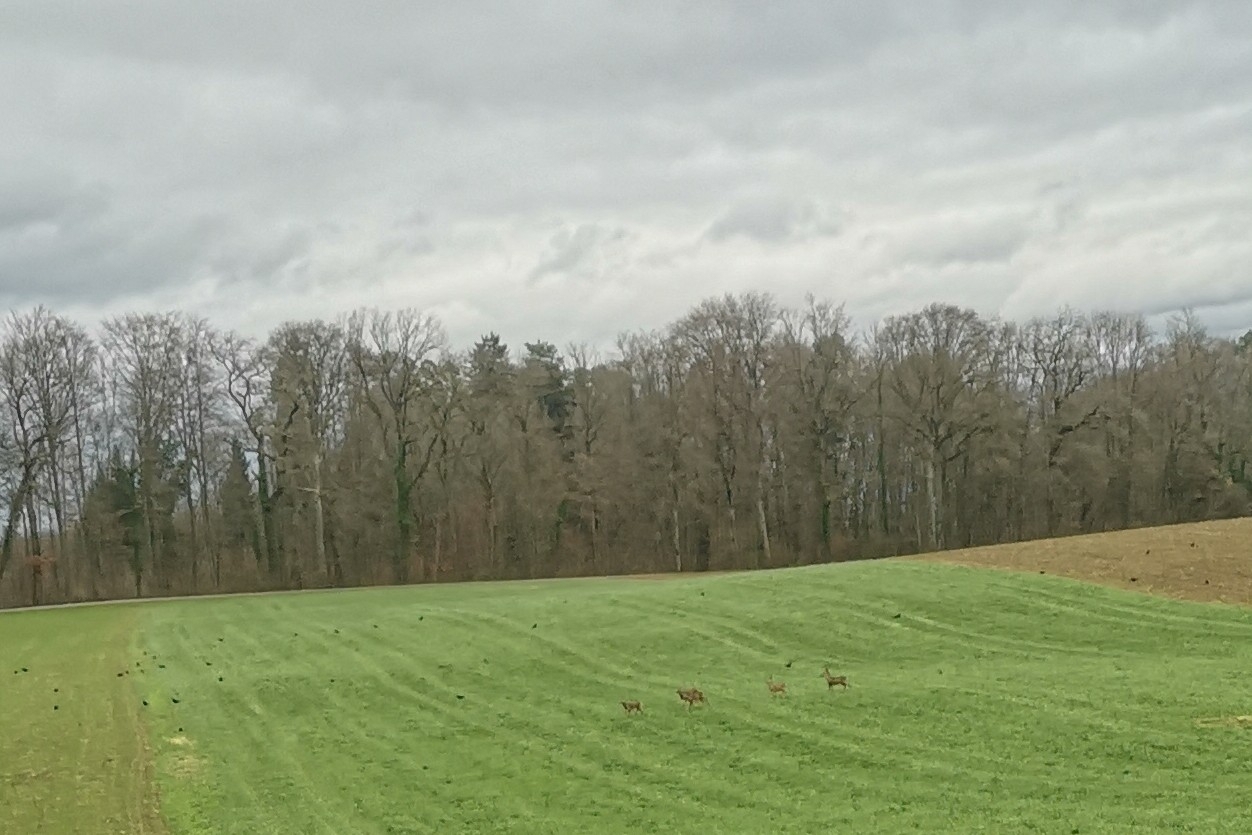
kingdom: Animalia
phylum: Chordata
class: Mammalia
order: Artiodactyla
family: Cervidae
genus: Capreolus
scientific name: Capreolus capreolus
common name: Western roe deer
